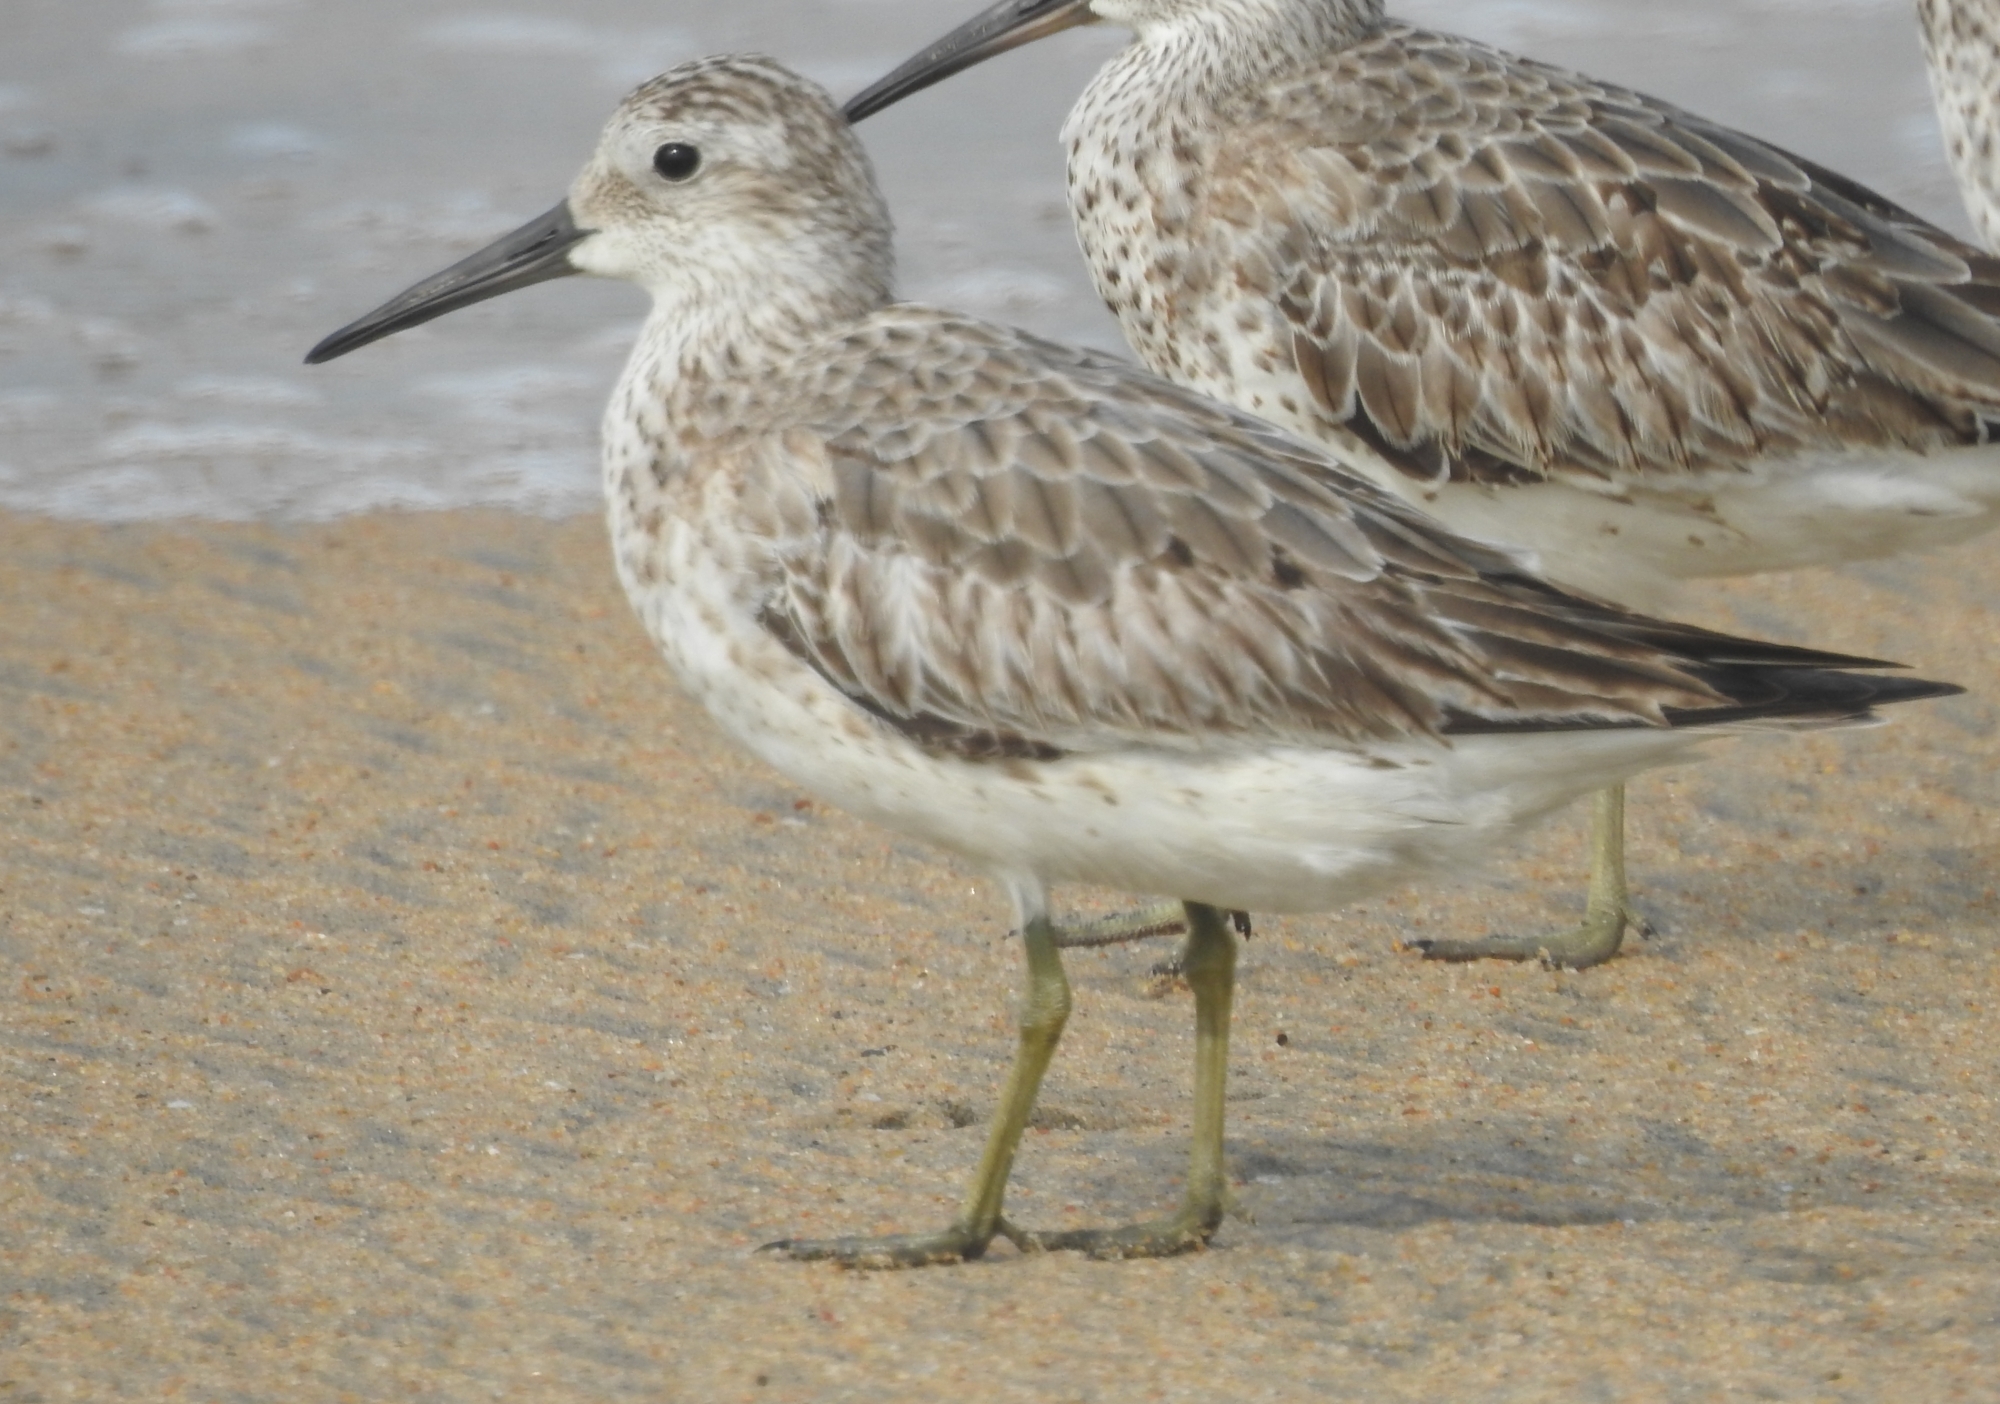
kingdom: Animalia
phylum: Chordata
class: Aves
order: Charadriiformes
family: Scolopacidae
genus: Calidris
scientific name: Calidris tenuirostris
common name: Great knot
